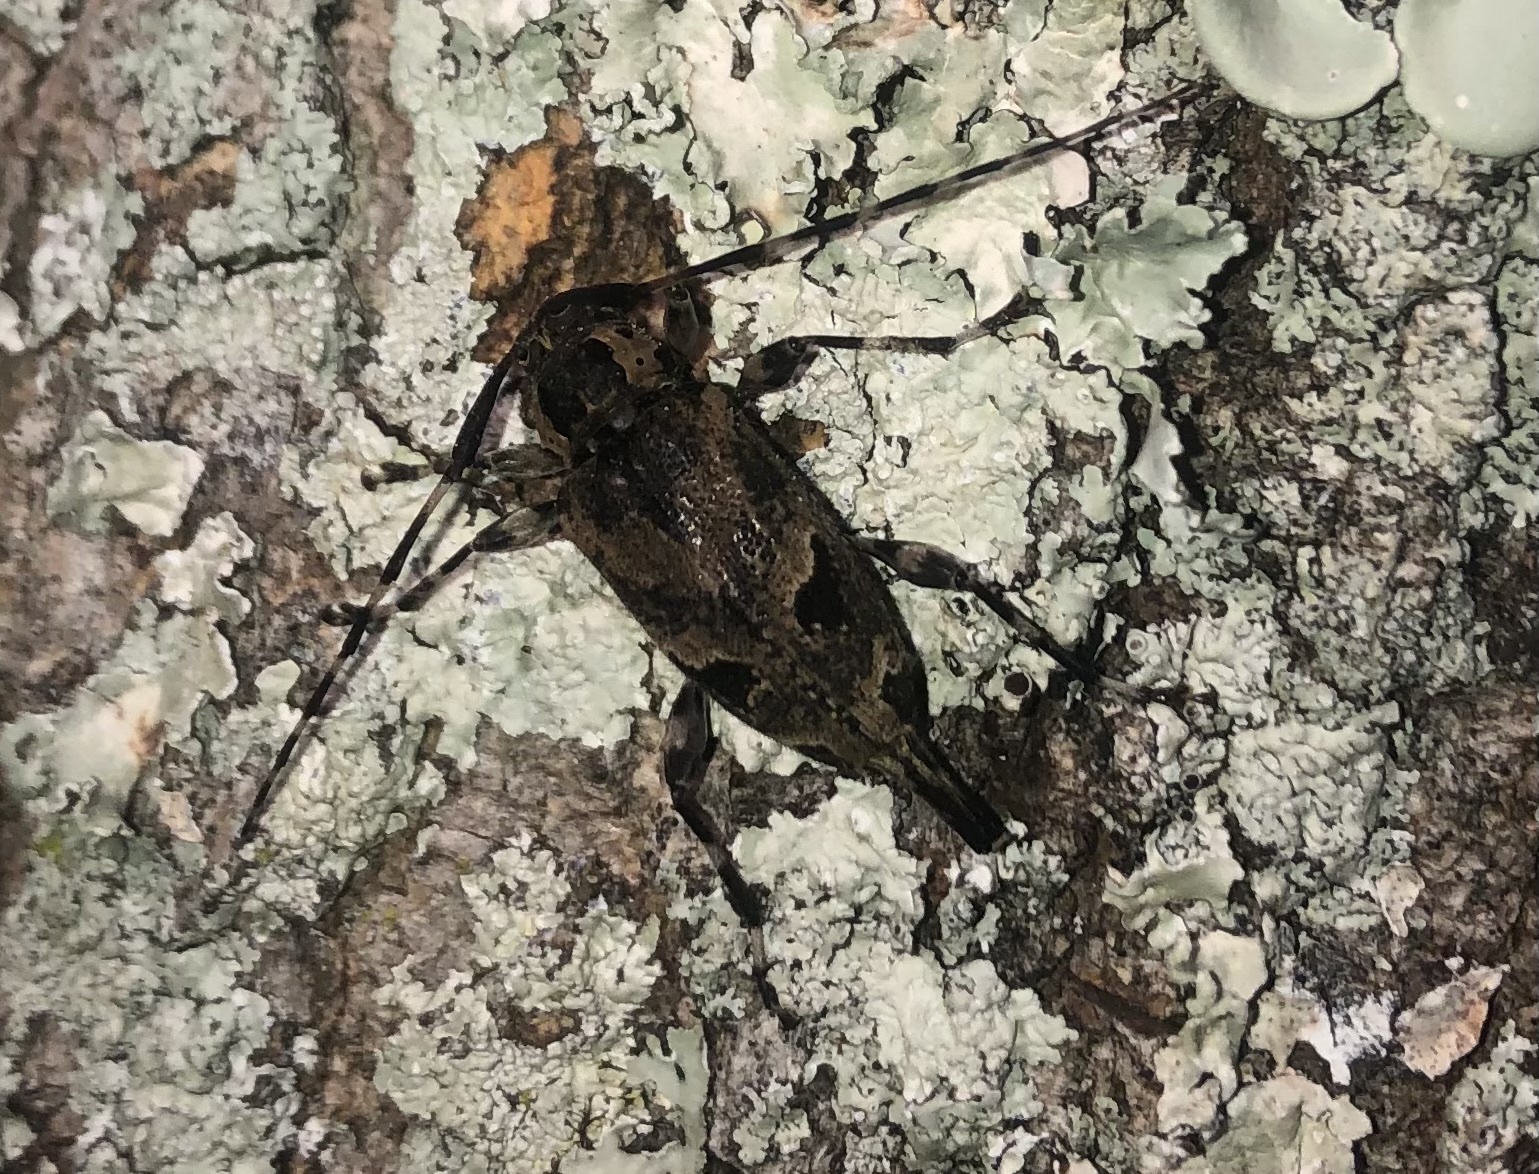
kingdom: Animalia
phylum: Arthropoda
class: Insecta
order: Coleoptera
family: Cerambycidae
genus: Graphisurus
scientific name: Graphisurus triangulifer
